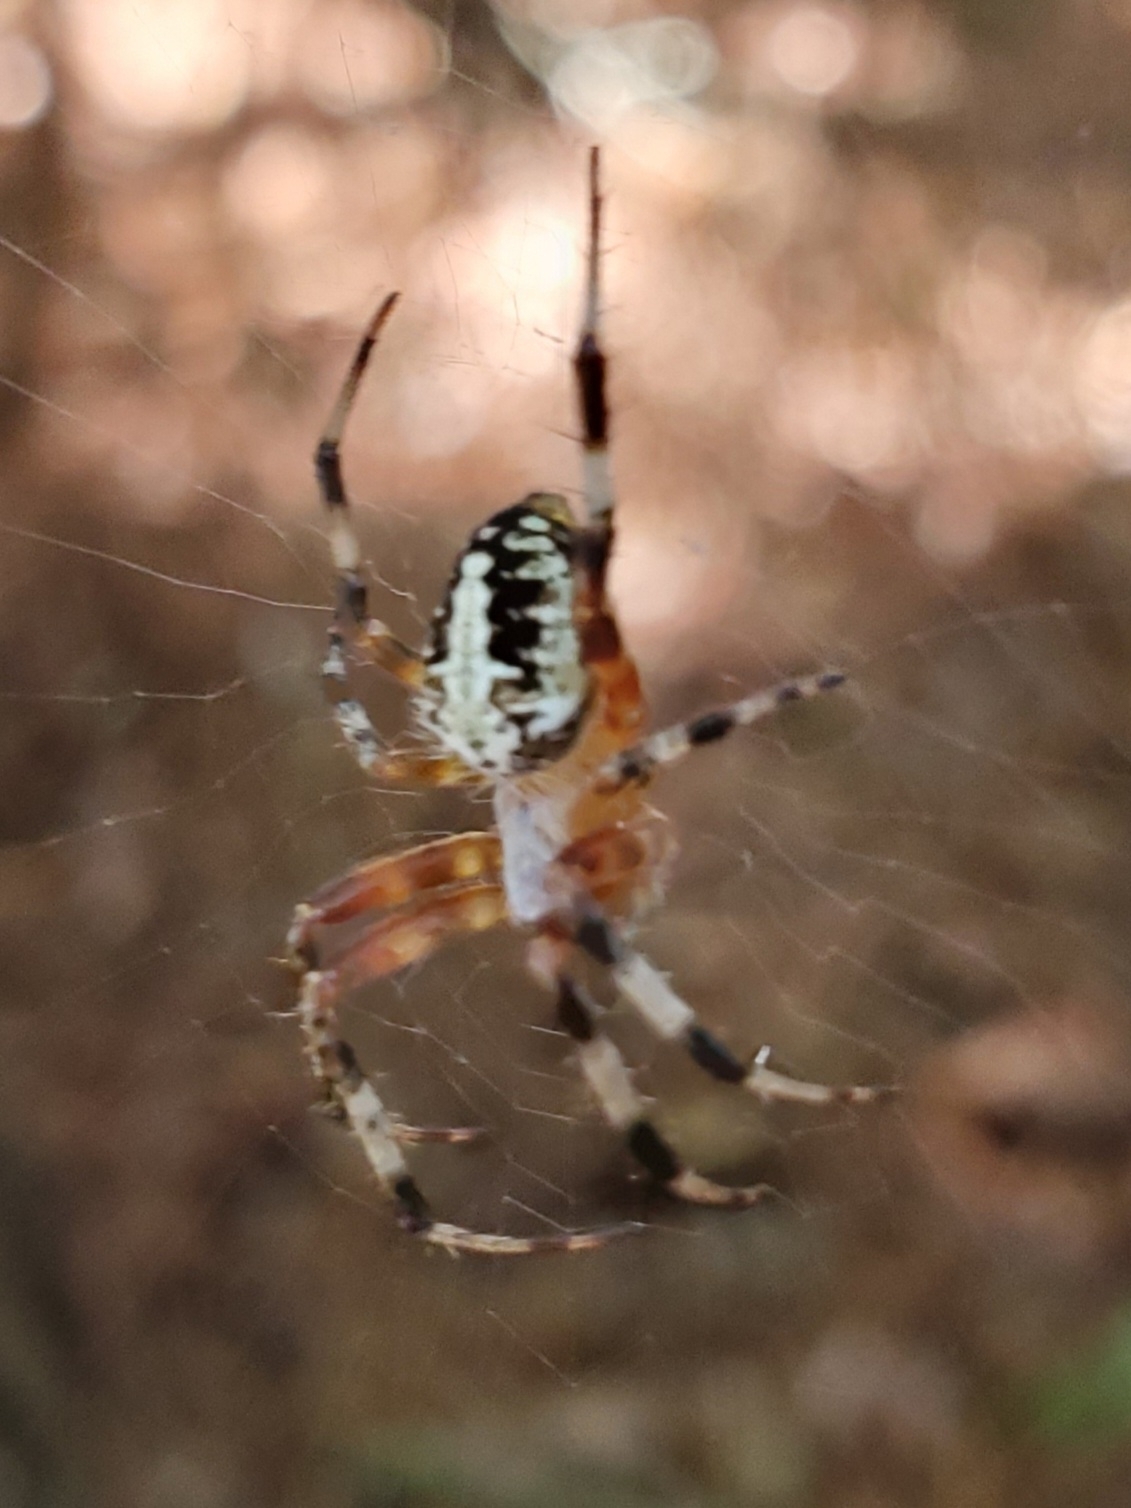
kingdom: Animalia
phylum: Arthropoda
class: Arachnida
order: Araneae
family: Araneidae
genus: Neoscona
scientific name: Neoscona domiciliorum
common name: Red-femured spotted orbweaver
